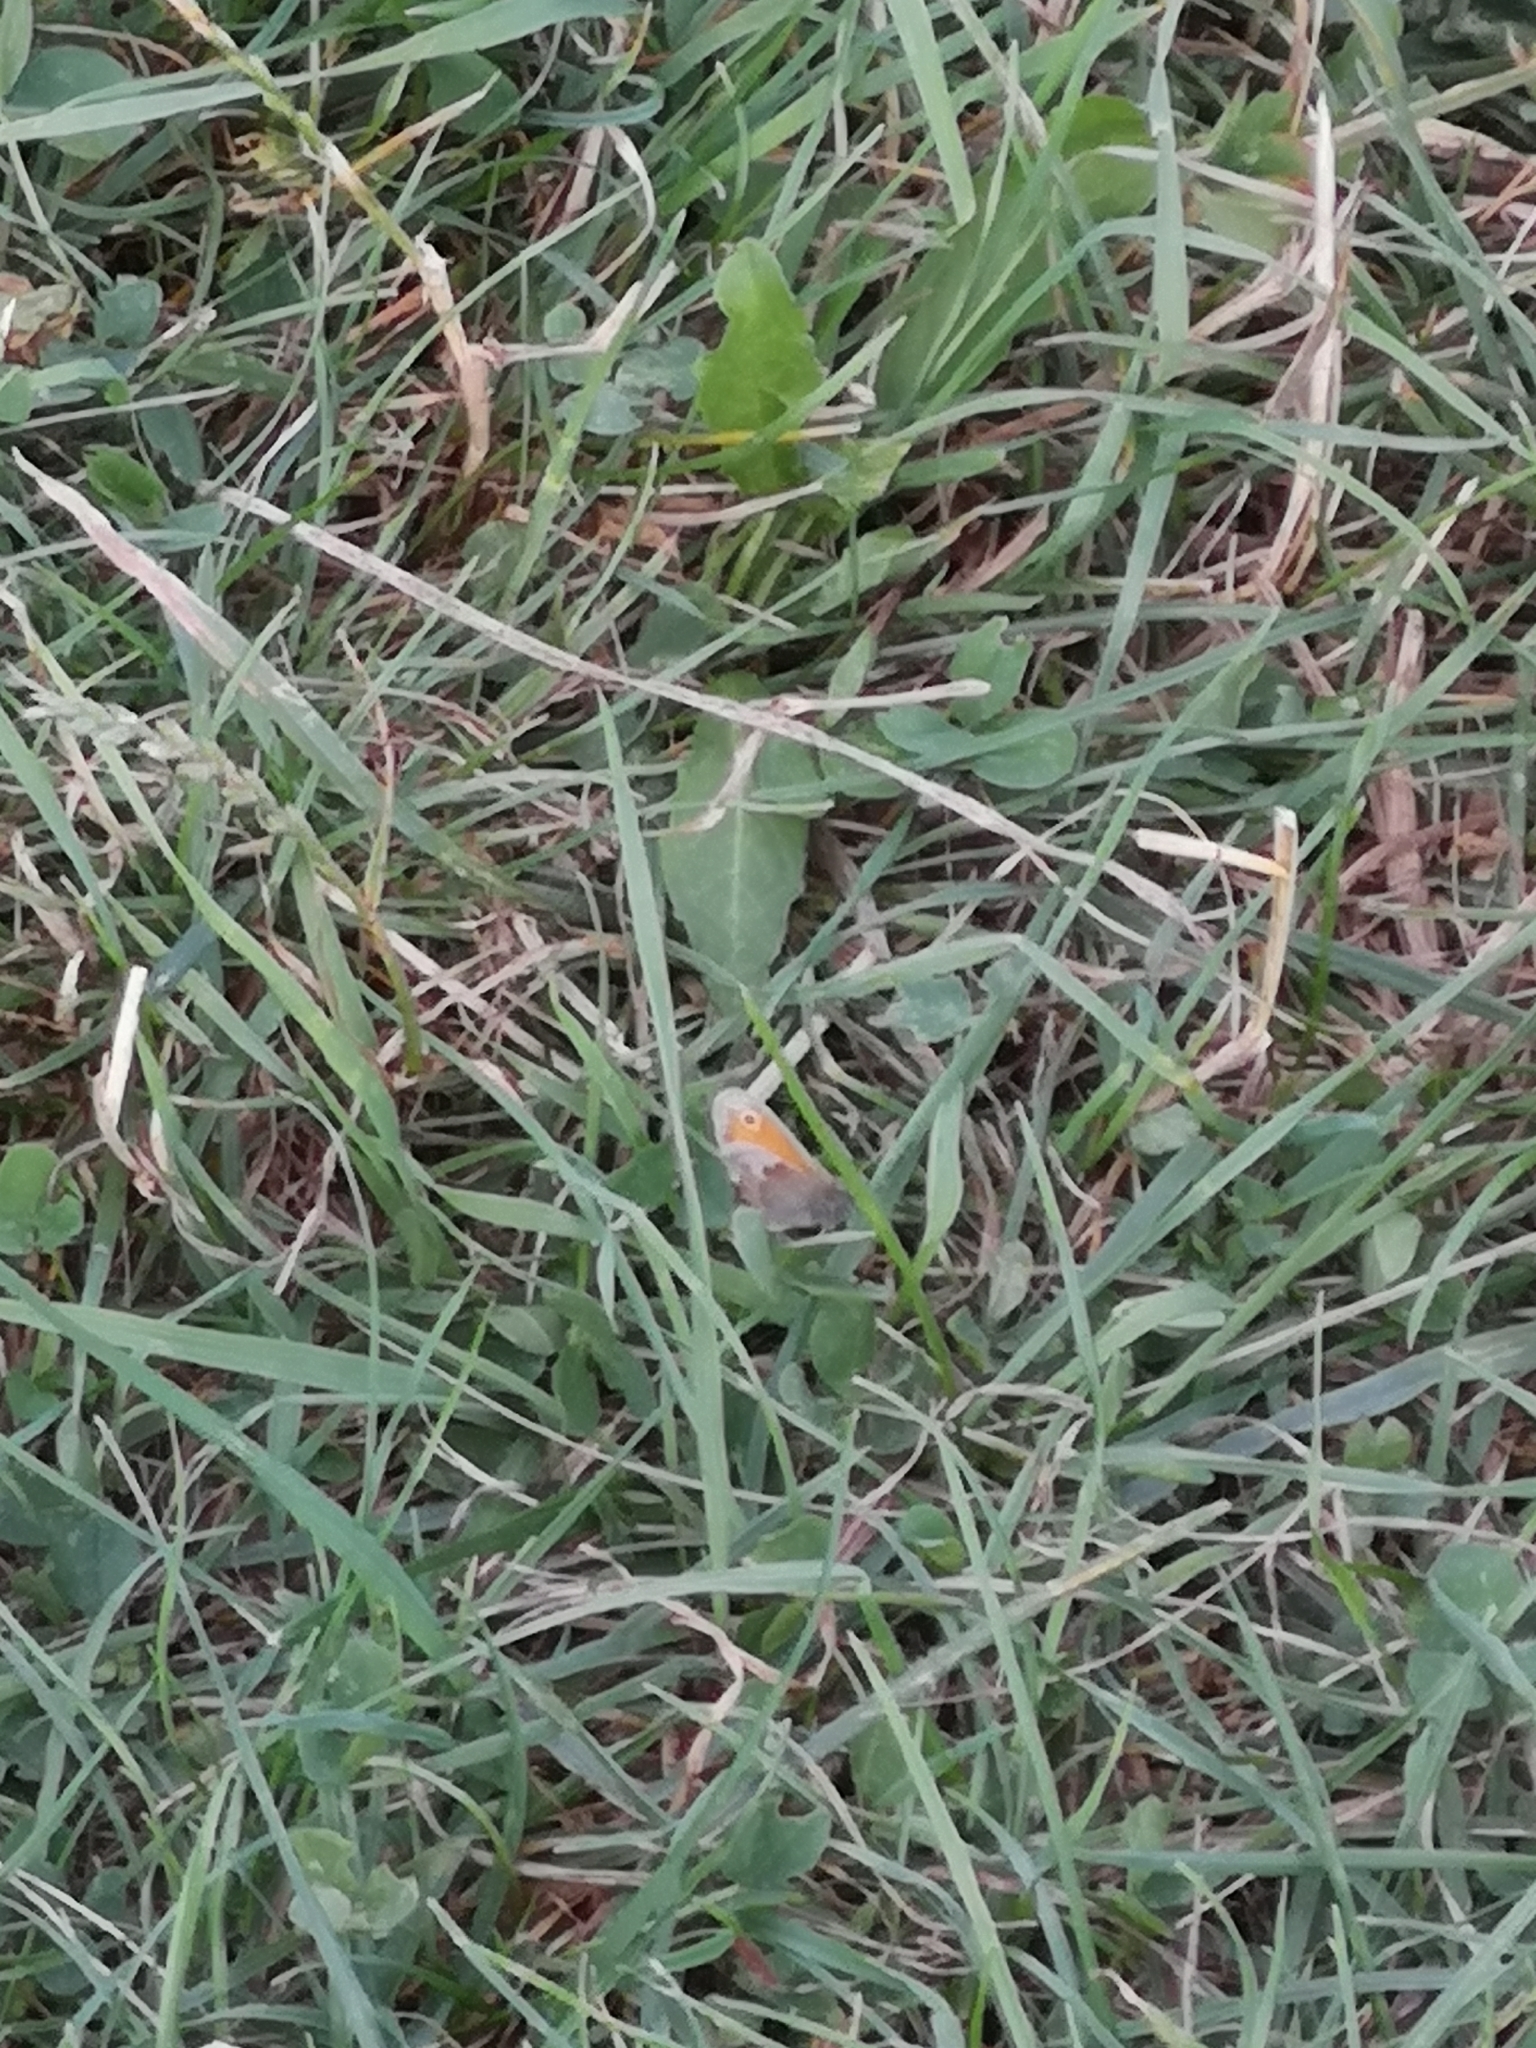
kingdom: Animalia
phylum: Arthropoda
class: Insecta
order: Lepidoptera
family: Nymphalidae
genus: Coenonympha
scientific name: Coenonympha pamphilus
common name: Small heath
